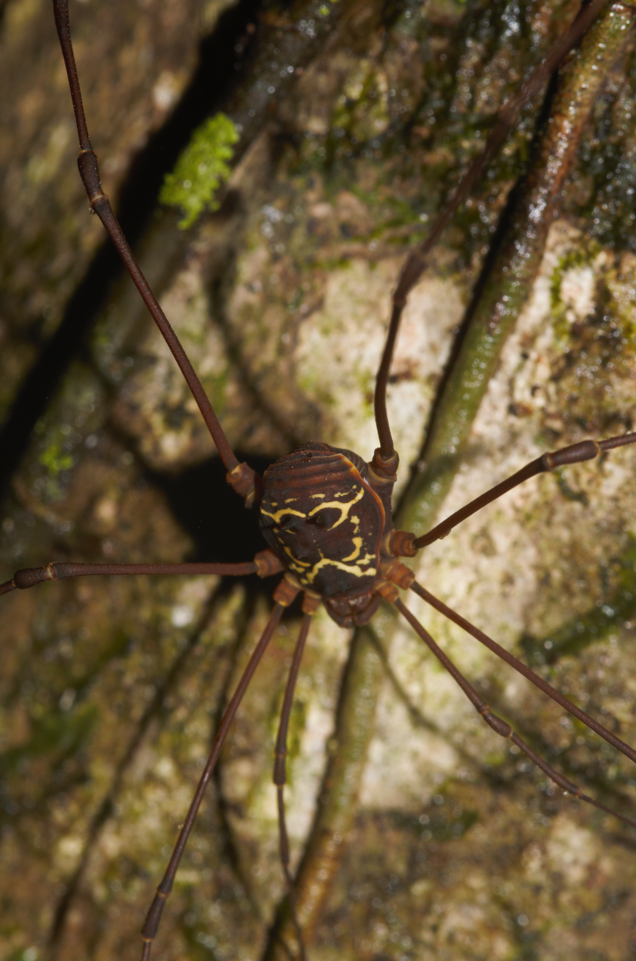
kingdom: Animalia
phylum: Arthropoda
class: Arachnida
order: Opiliones
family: Cosmetidae
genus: Paecilaema
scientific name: Paecilaema curvipes
